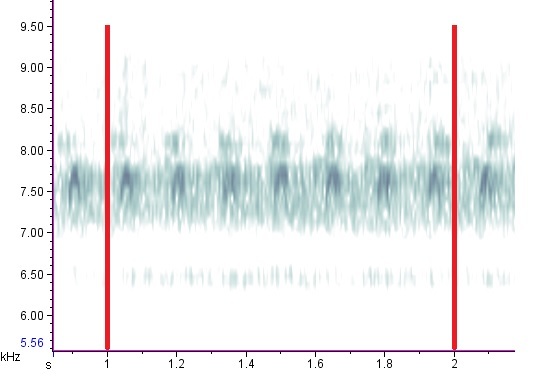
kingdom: Animalia
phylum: Arthropoda
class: Insecta
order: Orthoptera
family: Trigonidiidae
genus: Allonemobius
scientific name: Allonemobius tinnulus
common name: Tinkling ground cricket
